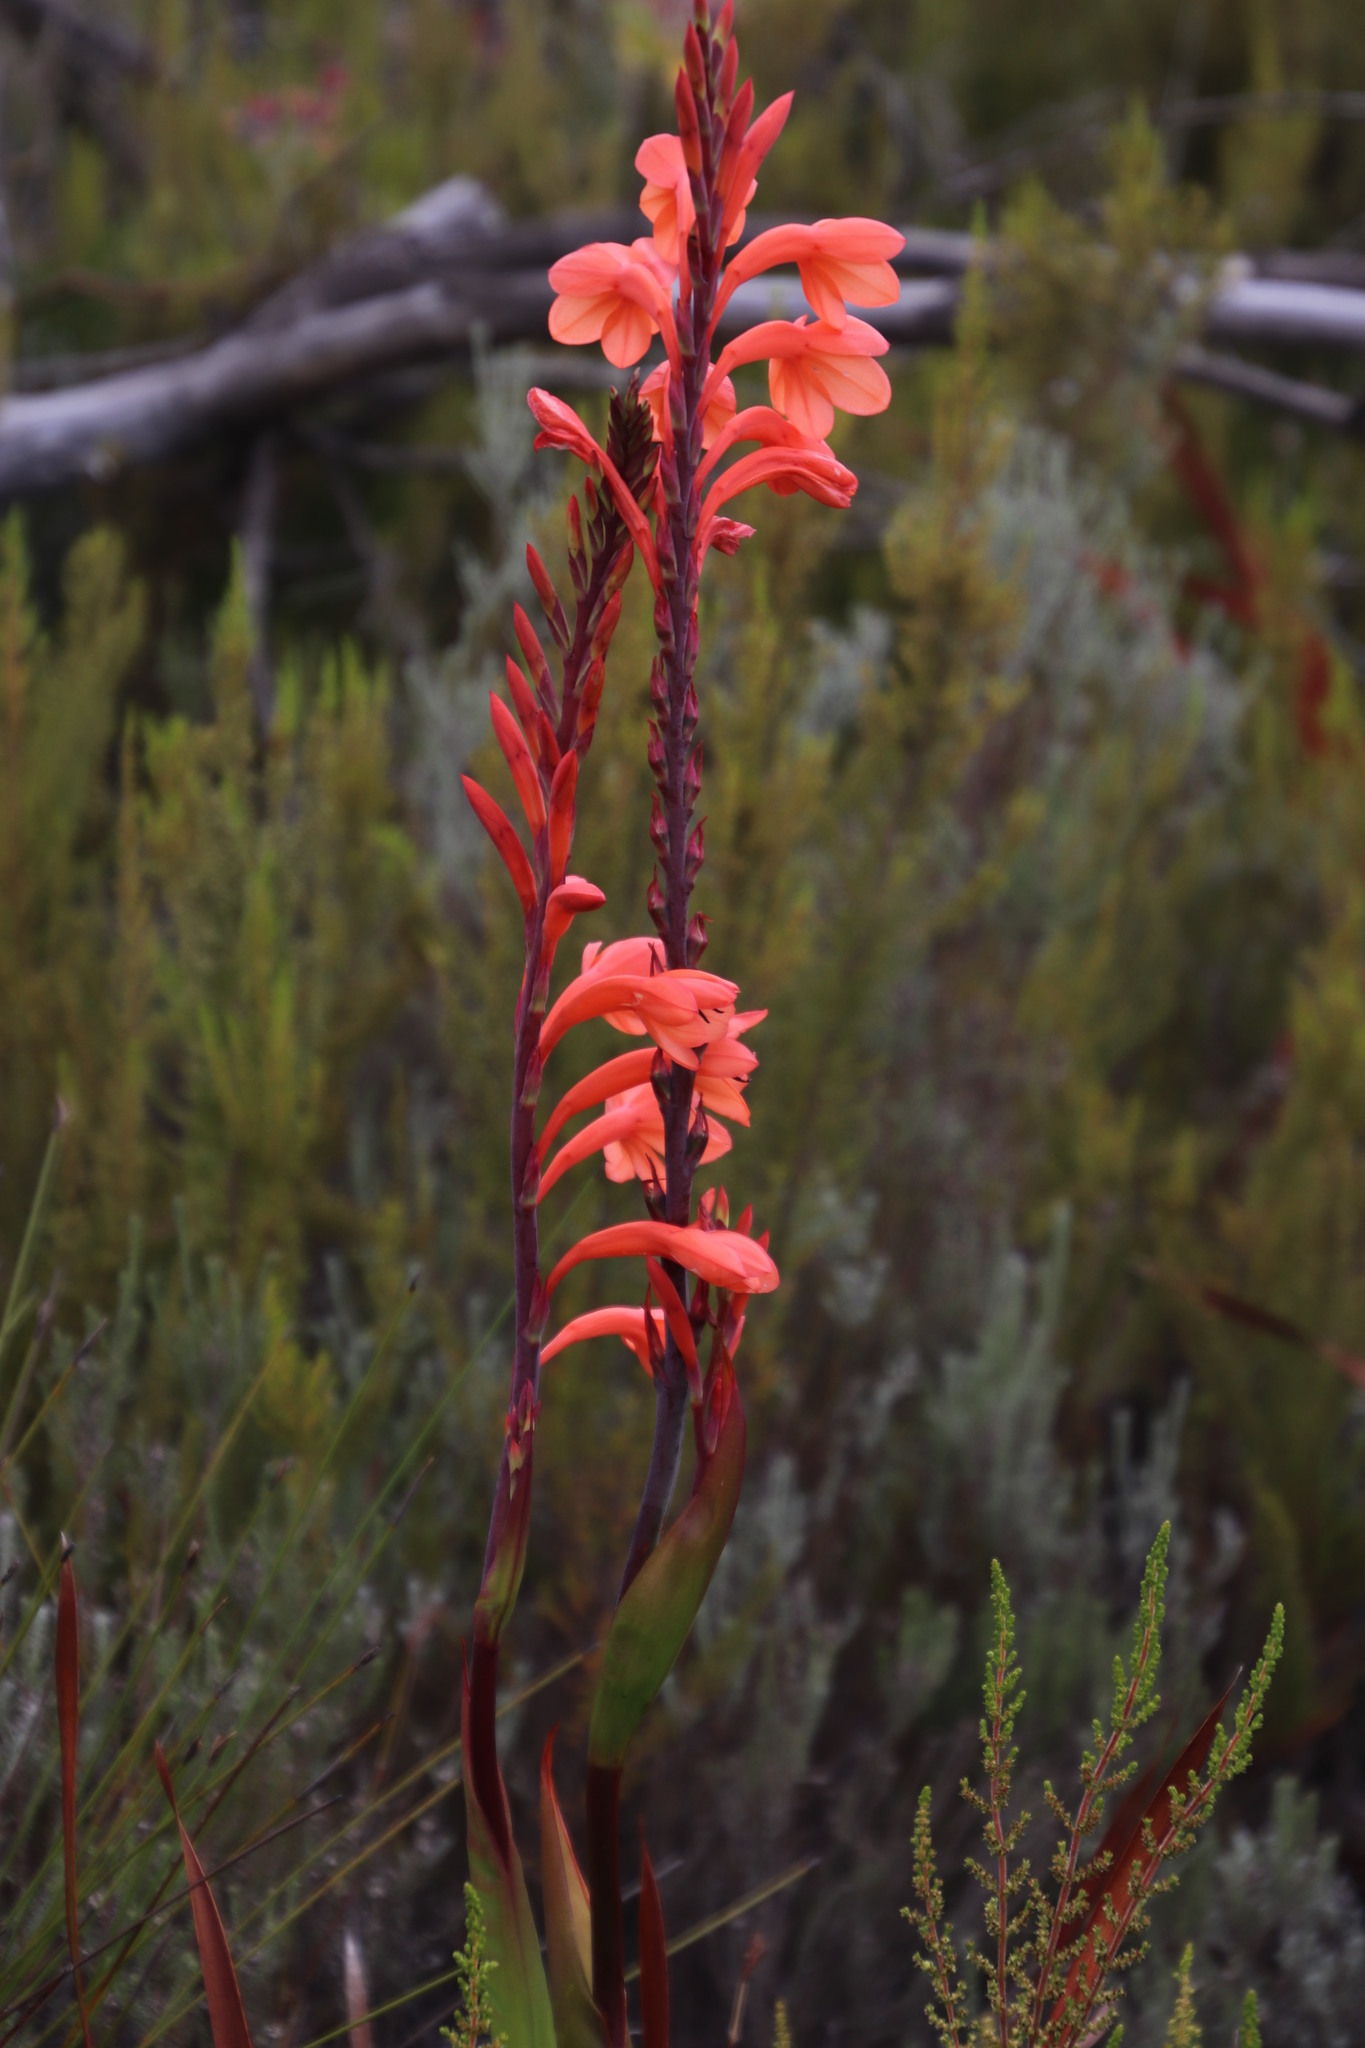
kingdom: Plantae
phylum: Tracheophyta
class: Liliopsida
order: Asparagales
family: Iridaceae
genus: Watsonia
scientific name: Watsonia tabularis
